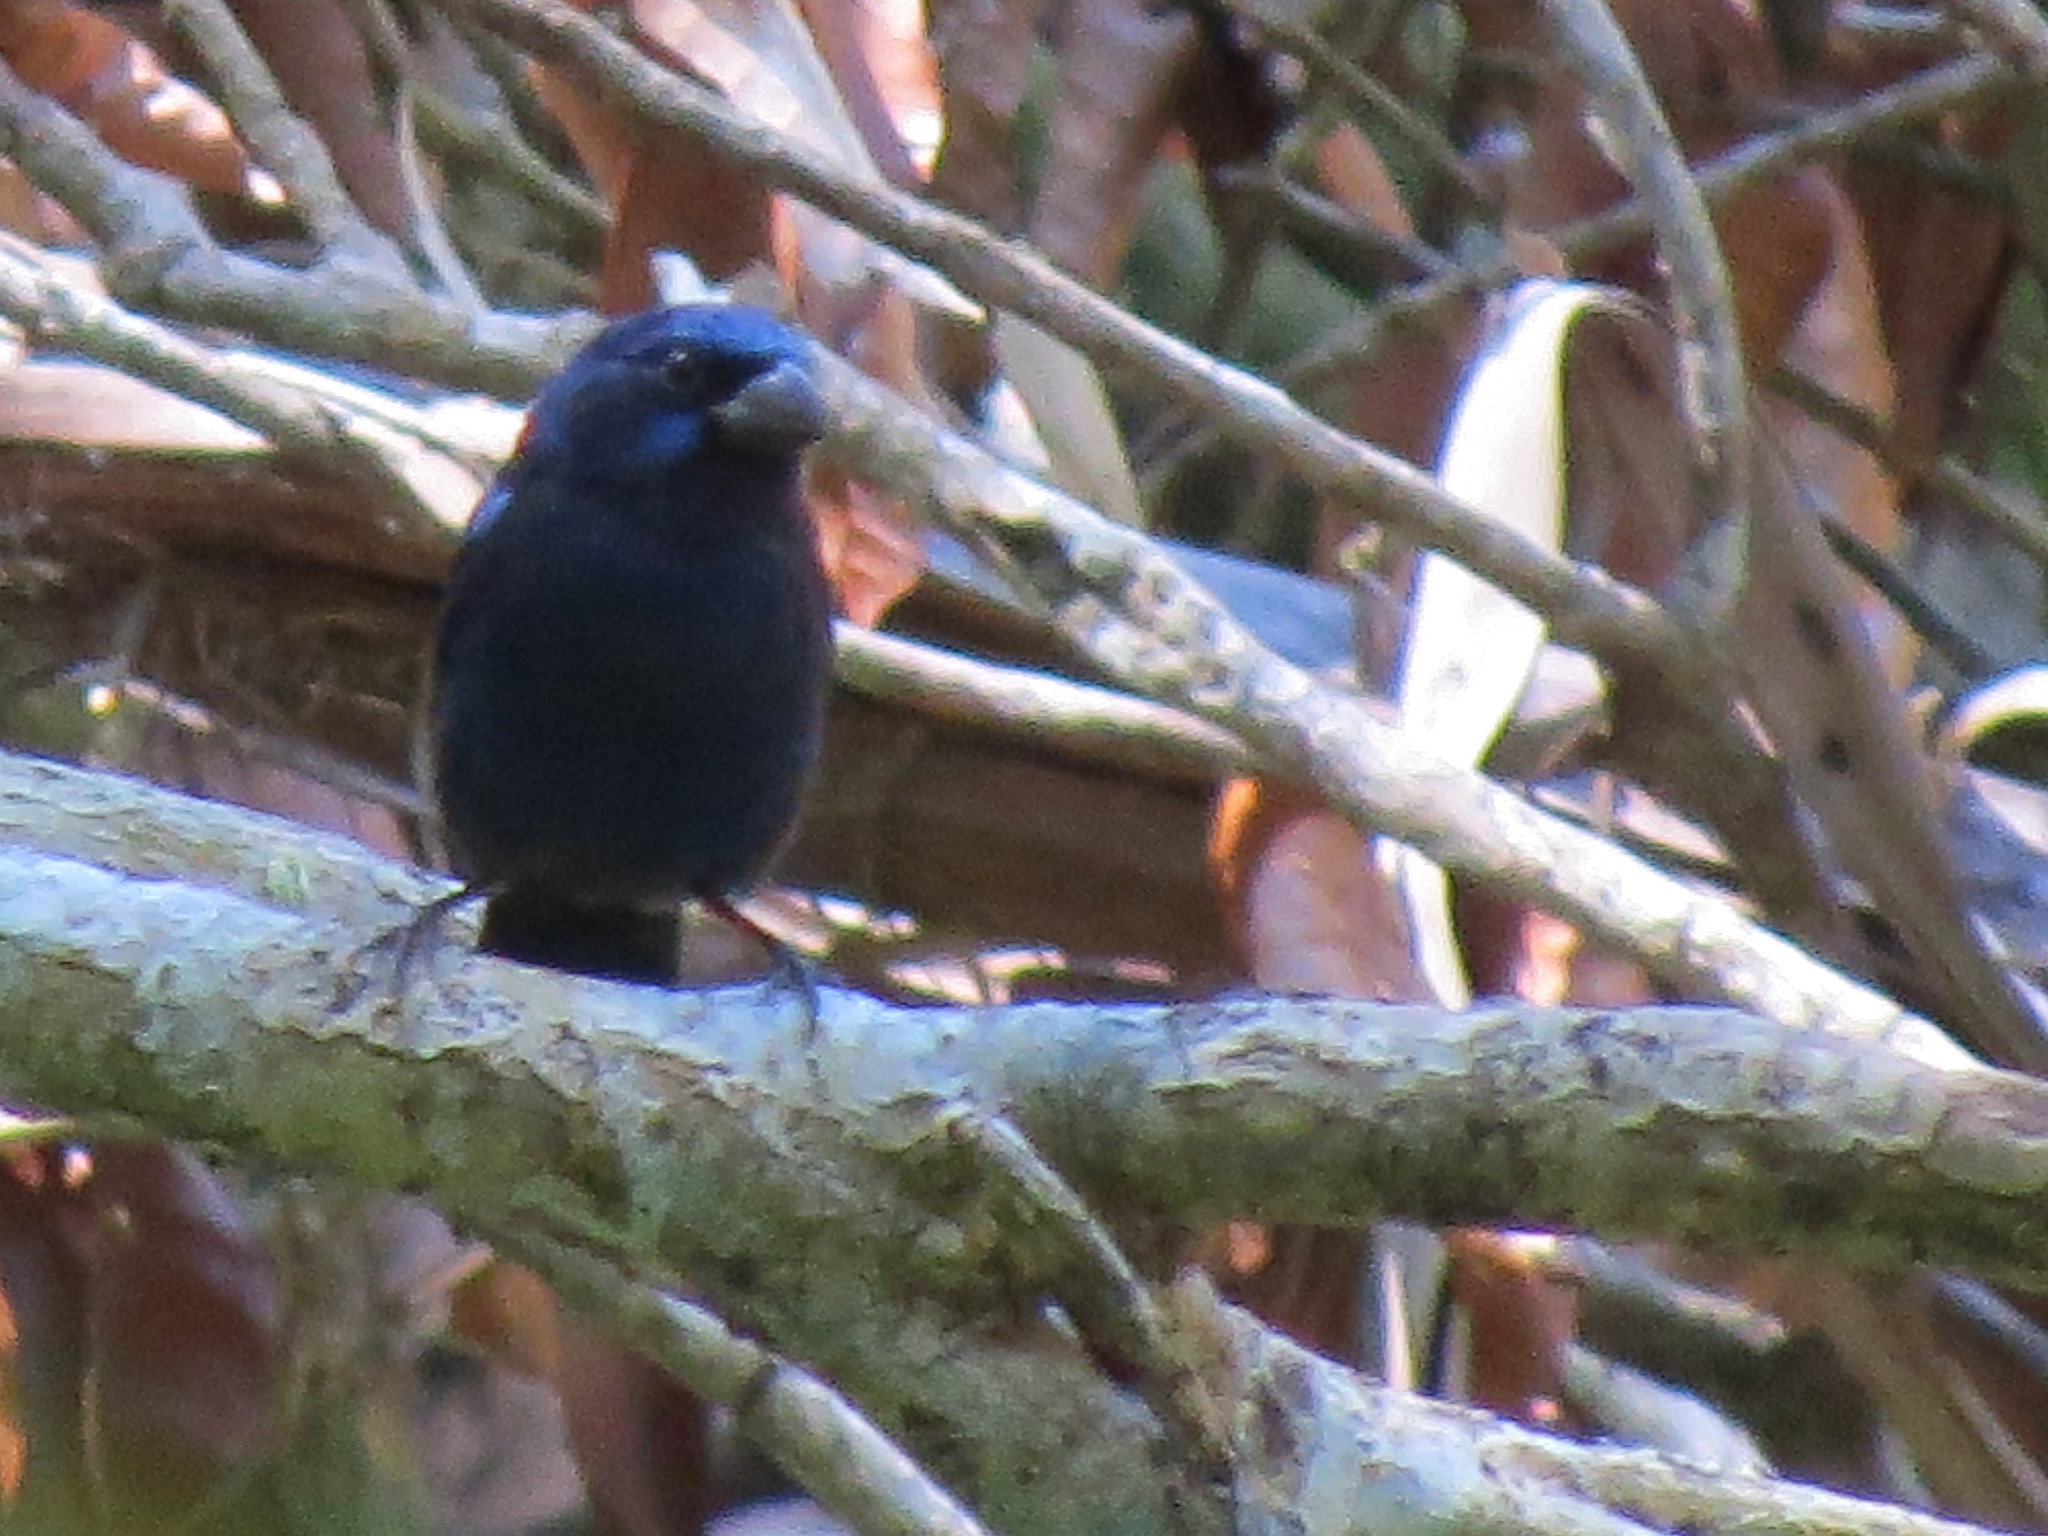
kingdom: Animalia
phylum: Chordata
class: Aves
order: Passeriformes
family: Cardinalidae
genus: Cyanocompsa
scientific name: Cyanocompsa parellina
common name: Blue bunting
